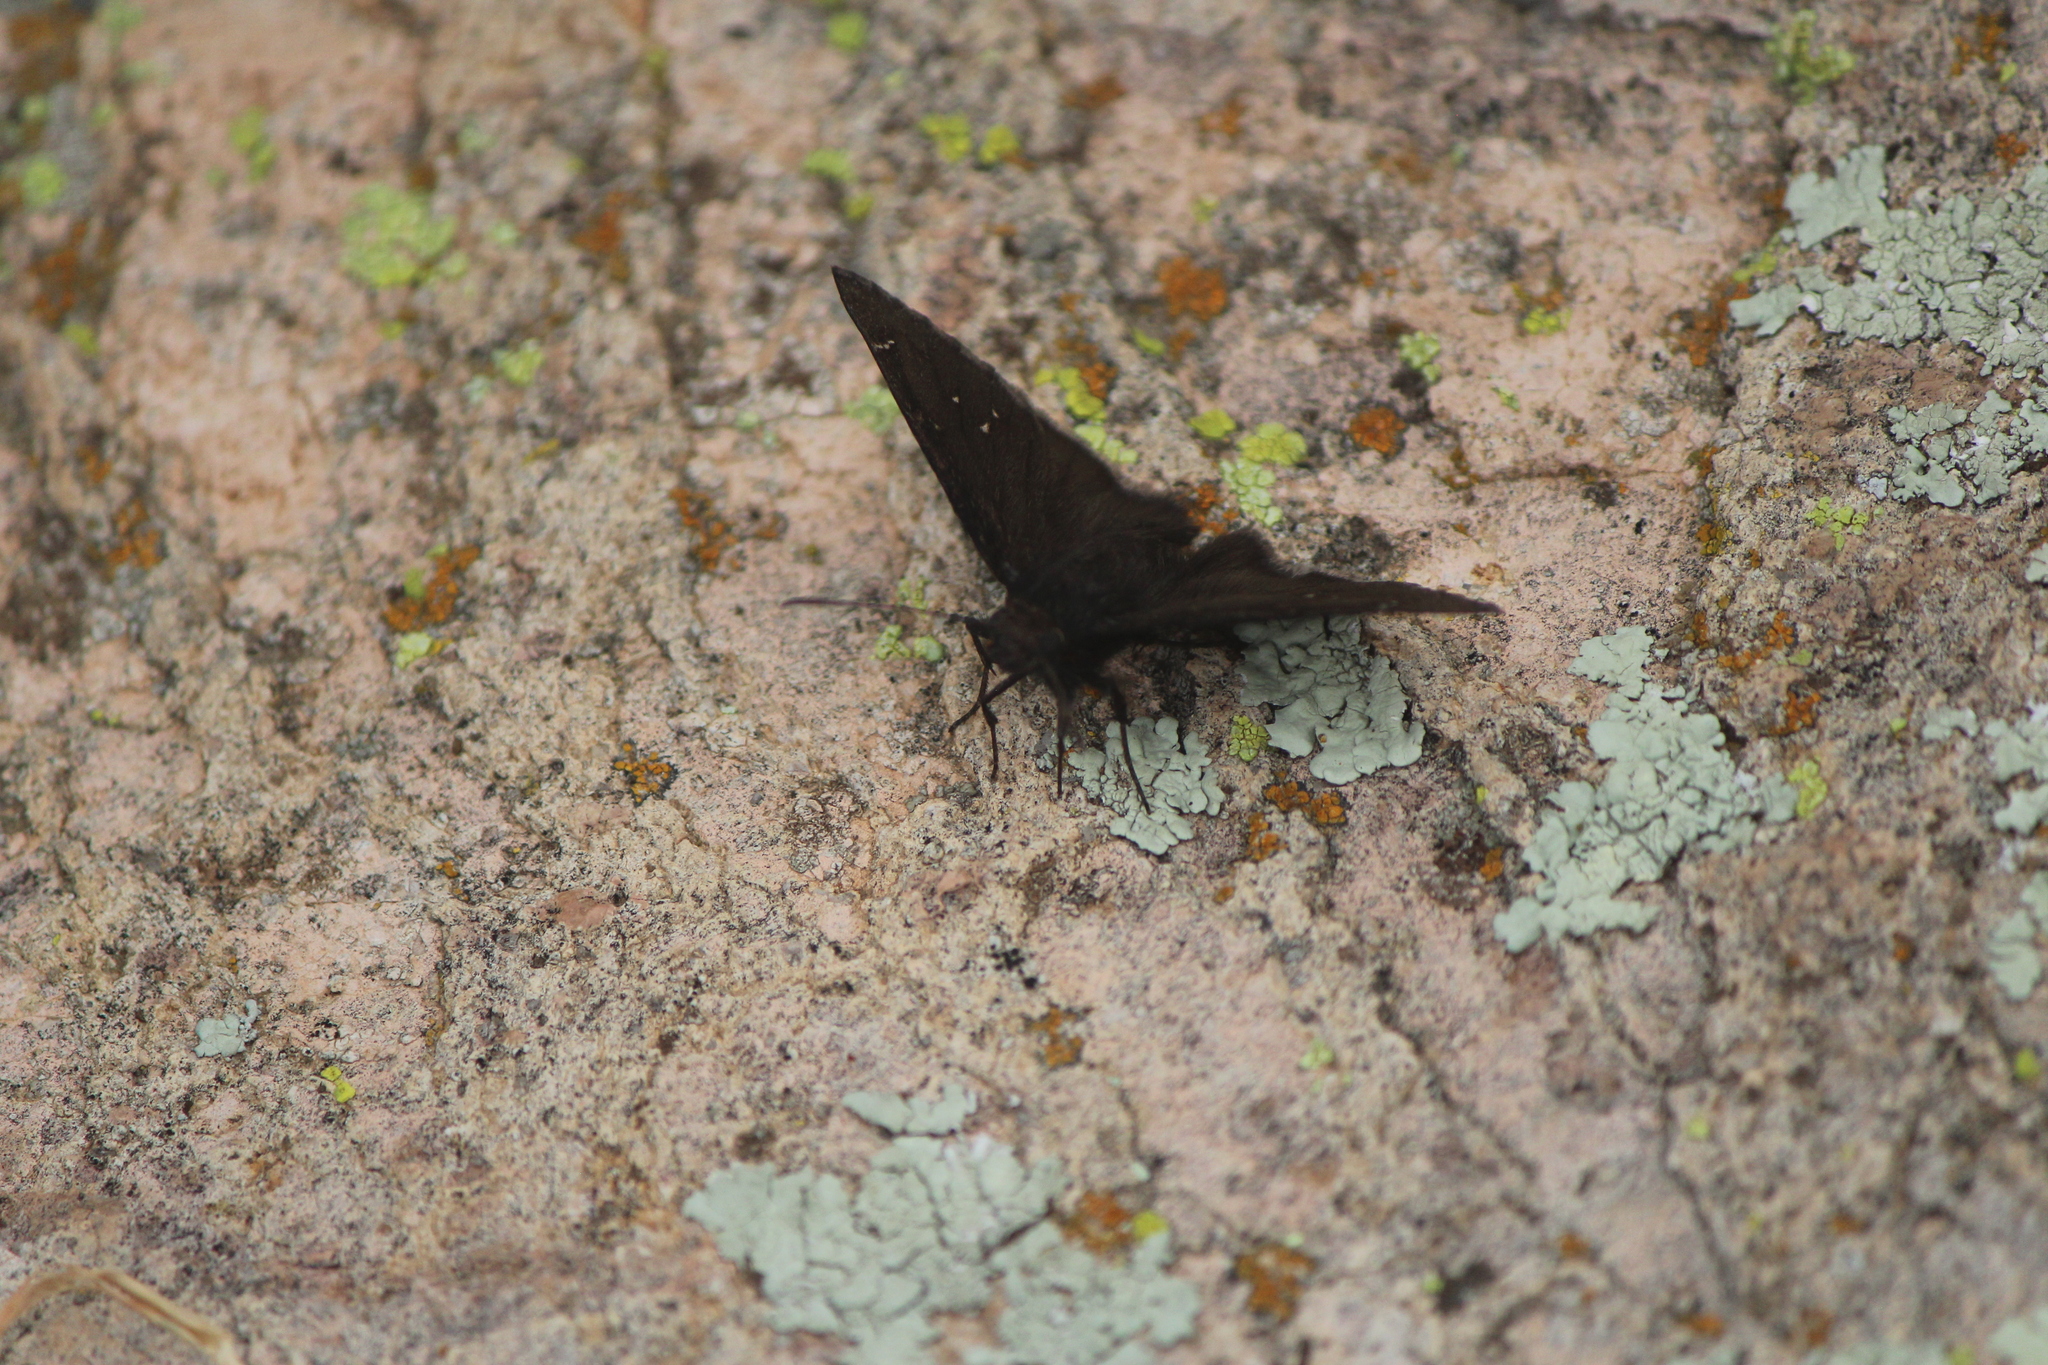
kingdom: Animalia
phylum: Arthropoda
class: Insecta
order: Lepidoptera
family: Hesperiidae
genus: Thorybes
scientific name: Thorybes pylades
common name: Northern cloudywing
